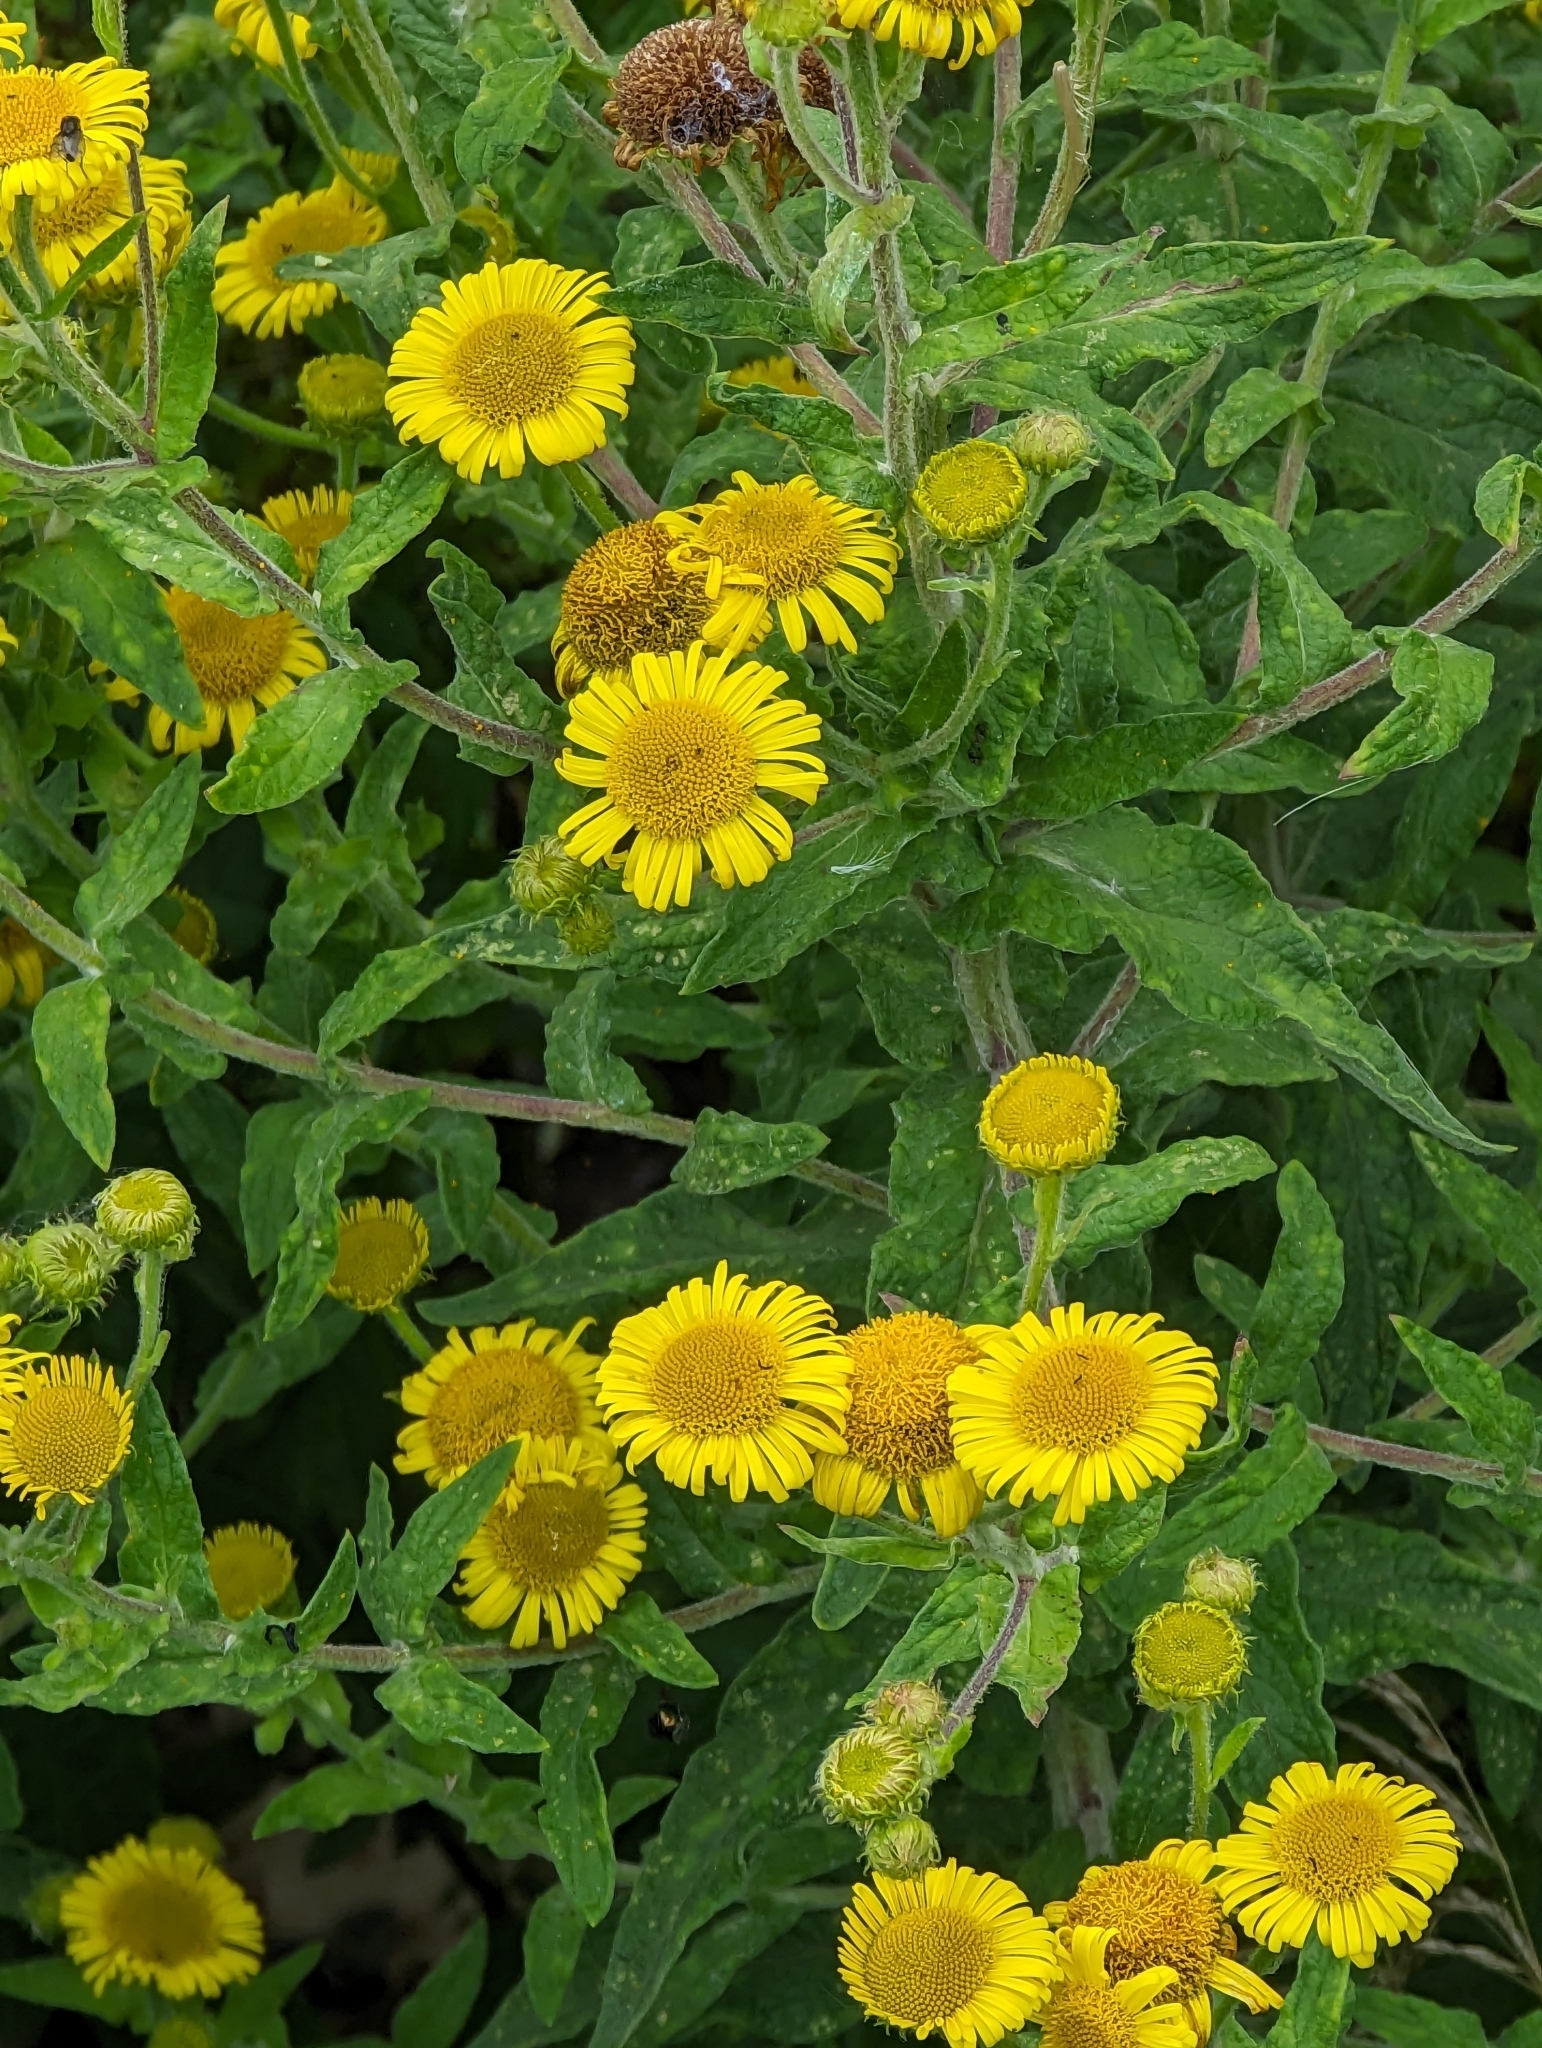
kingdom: Plantae
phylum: Tracheophyta
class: Magnoliopsida
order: Asterales
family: Asteraceae
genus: Pulicaria
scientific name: Pulicaria dysenterica
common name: Common fleabane
